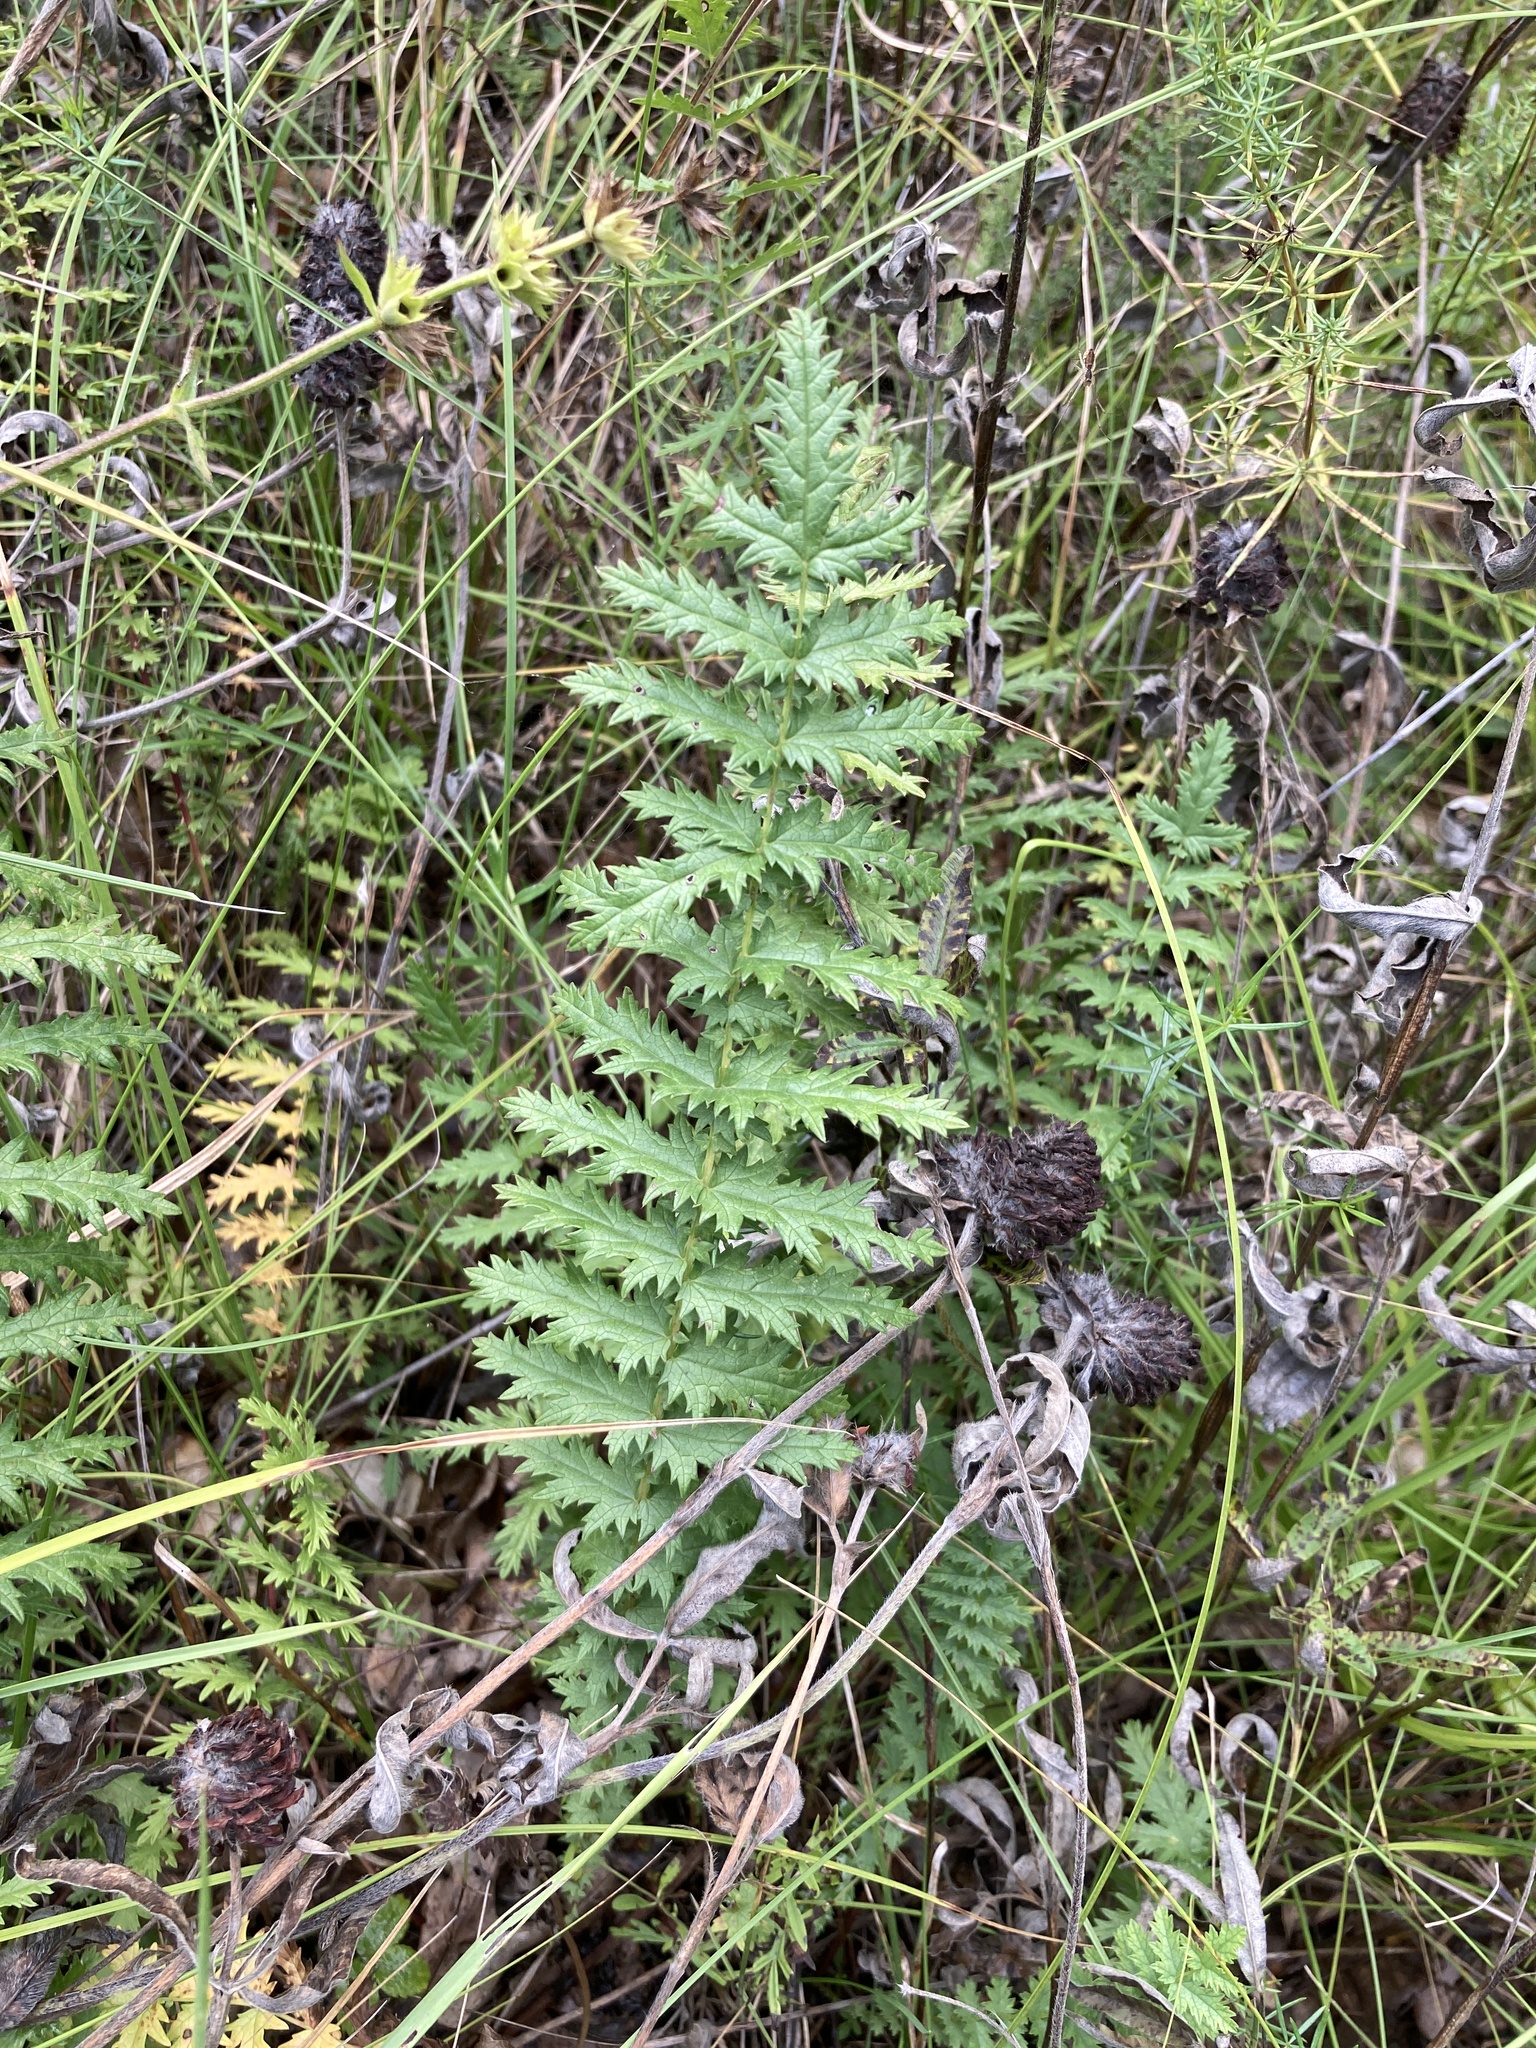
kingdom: Plantae
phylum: Tracheophyta
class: Magnoliopsida
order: Rosales
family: Rosaceae
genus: Filipendula
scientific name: Filipendula vulgaris
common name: Dropwort
